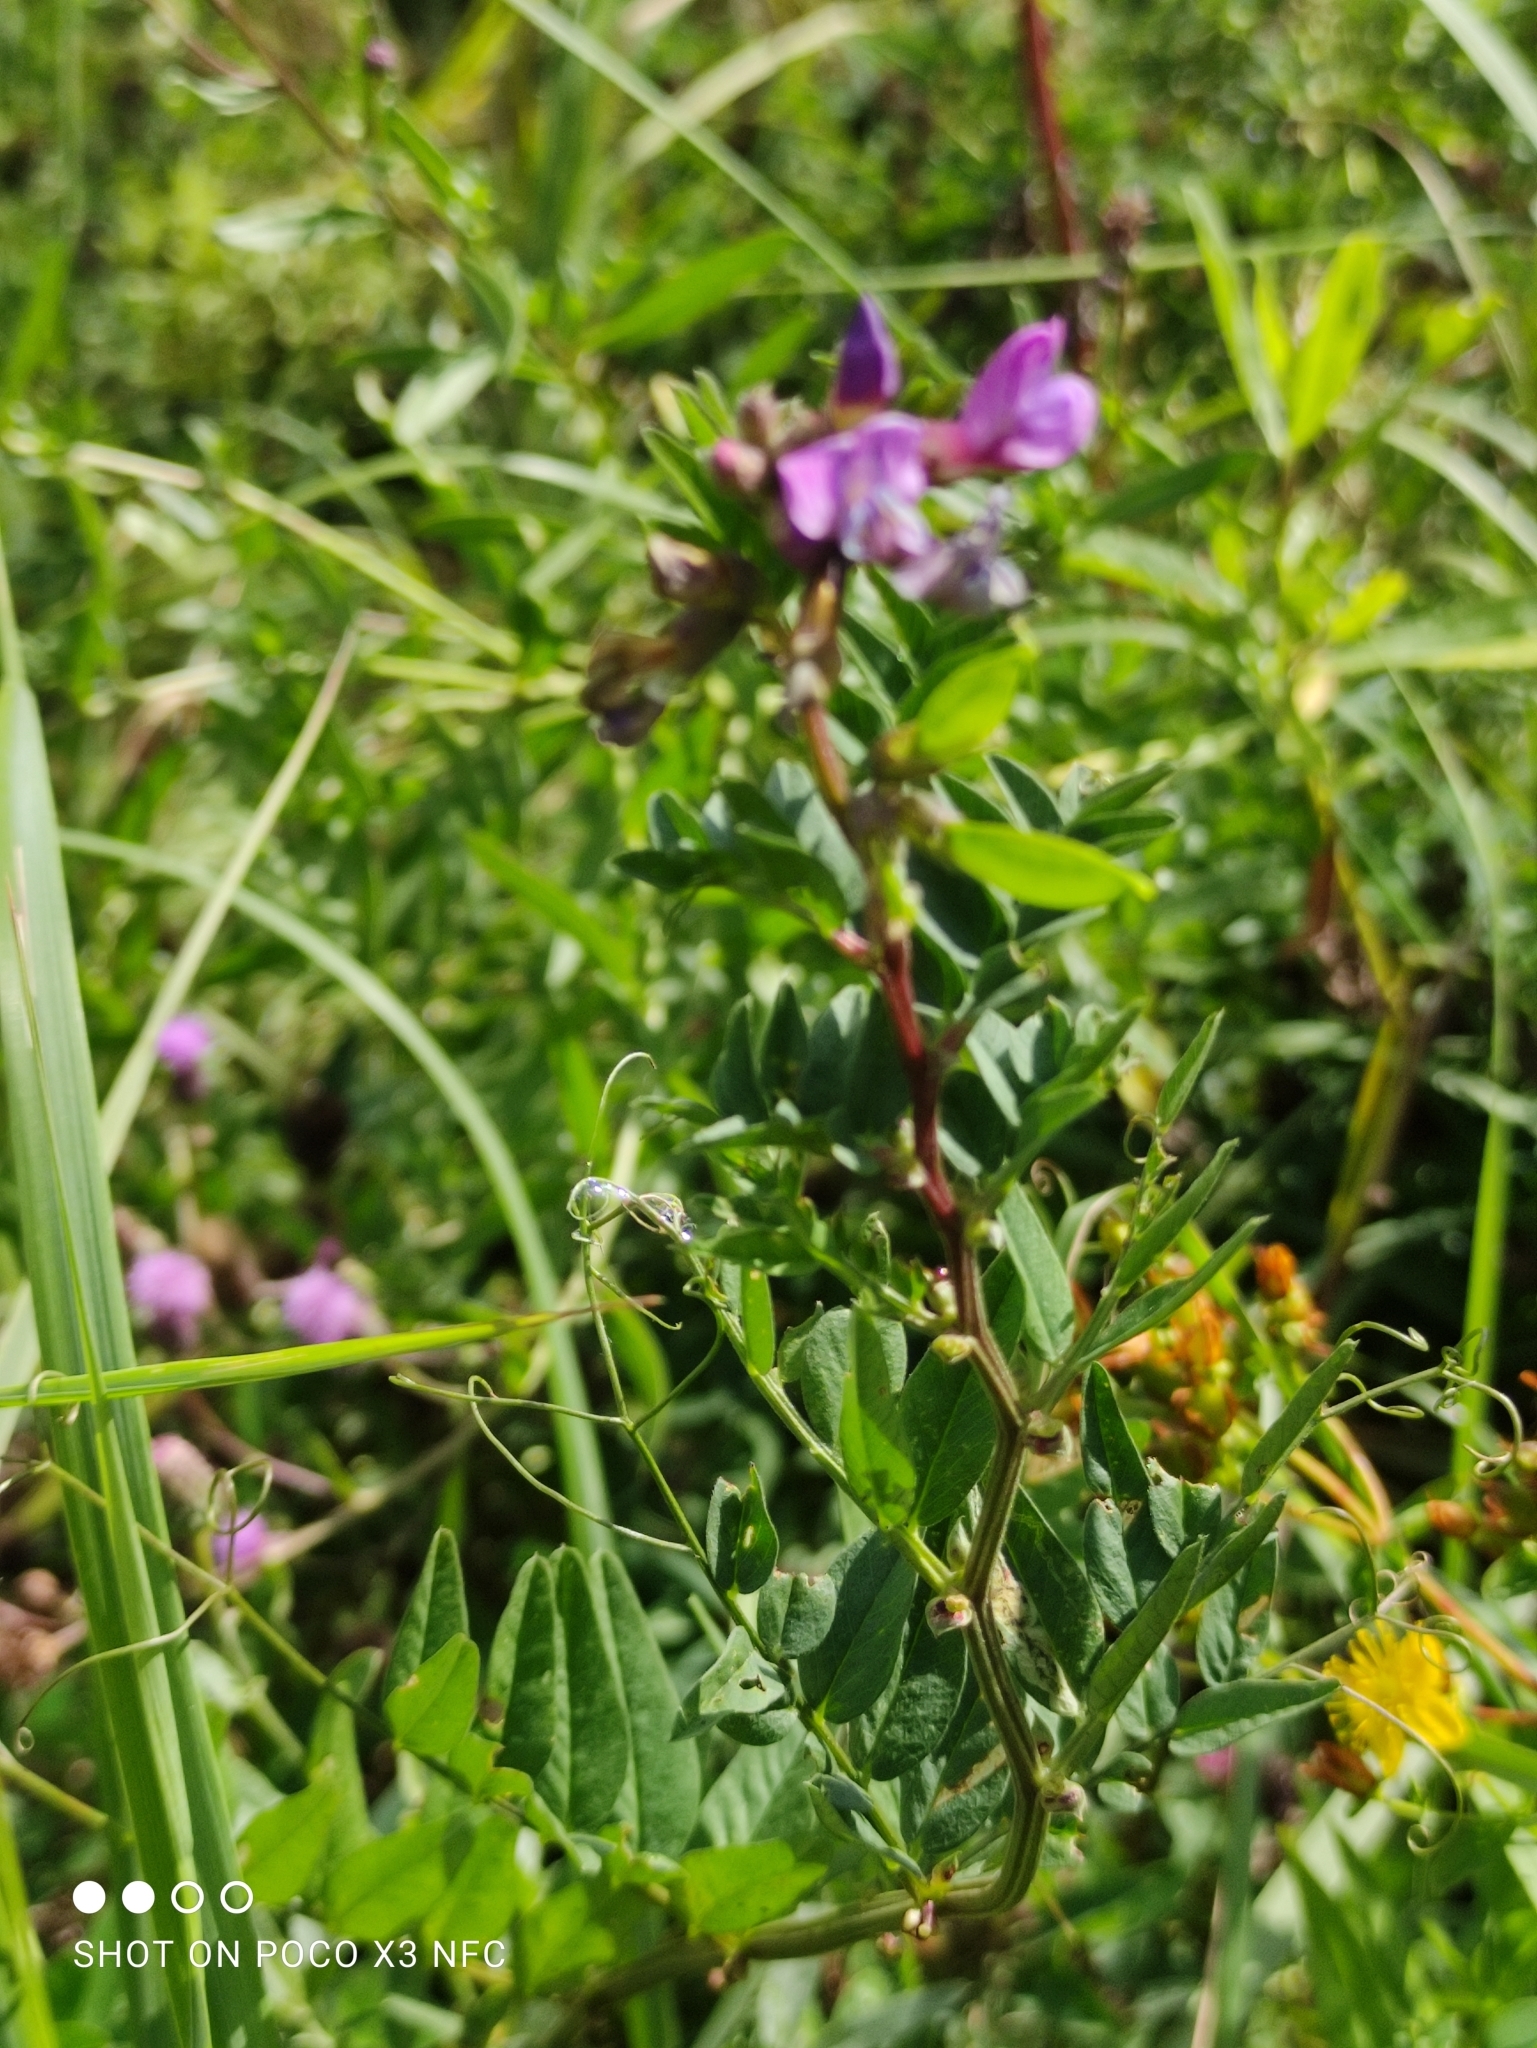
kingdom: Plantae
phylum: Tracheophyta
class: Magnoliopsida
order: Fabales
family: Fabaceae
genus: Vicia
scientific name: Vicia sepium
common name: Bush vetch
